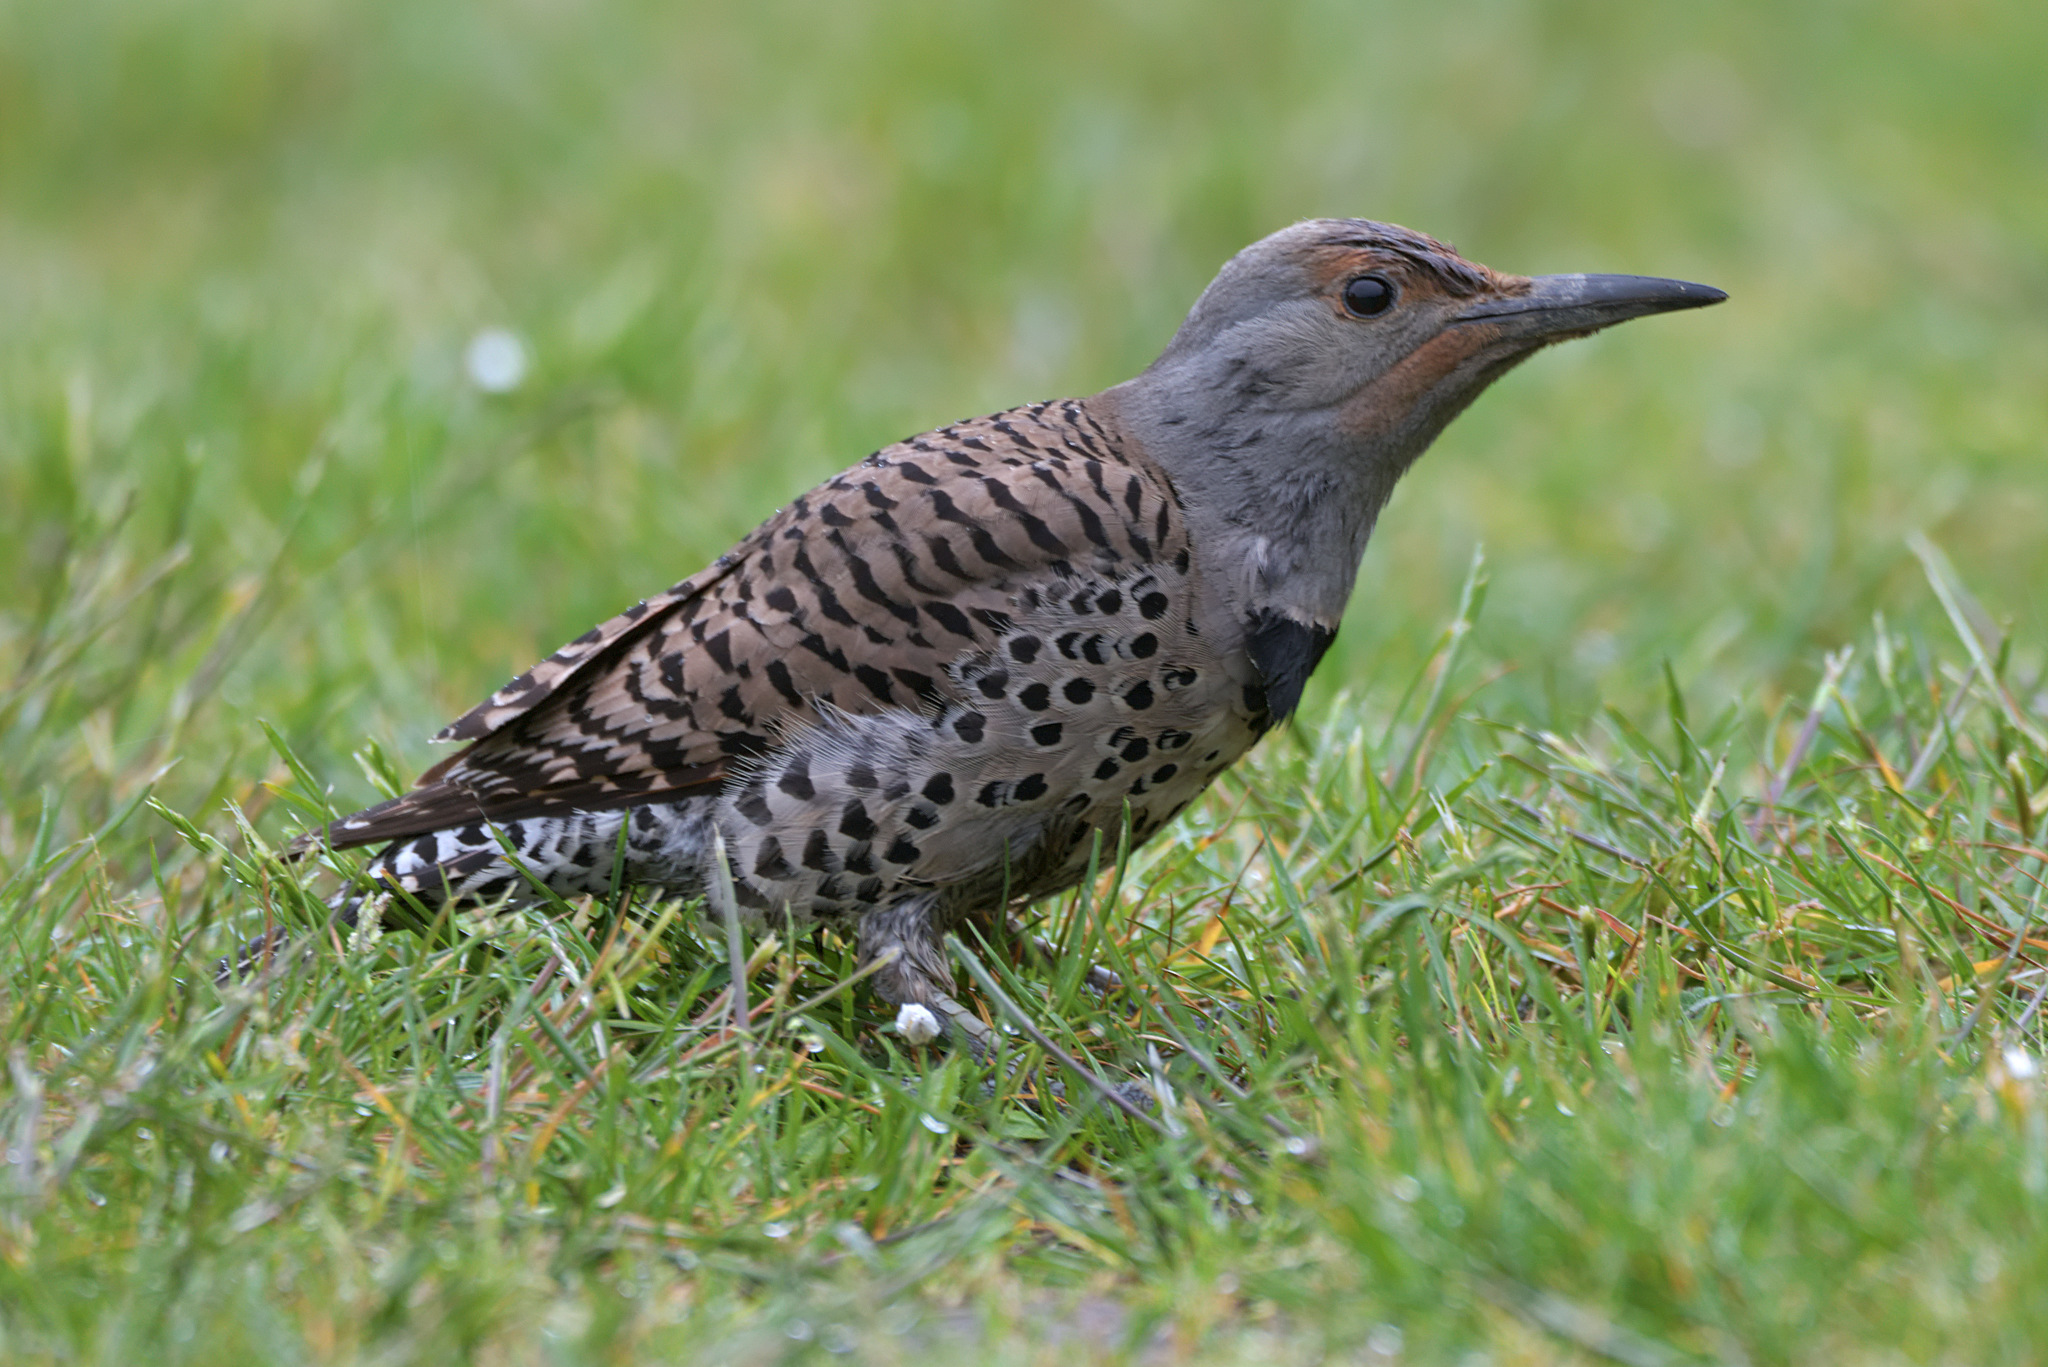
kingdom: Animalia
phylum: Chordata
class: Aves
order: Piciformes
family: Picidae
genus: Colaptes
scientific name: Colaptes auratus
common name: Northern flicker
